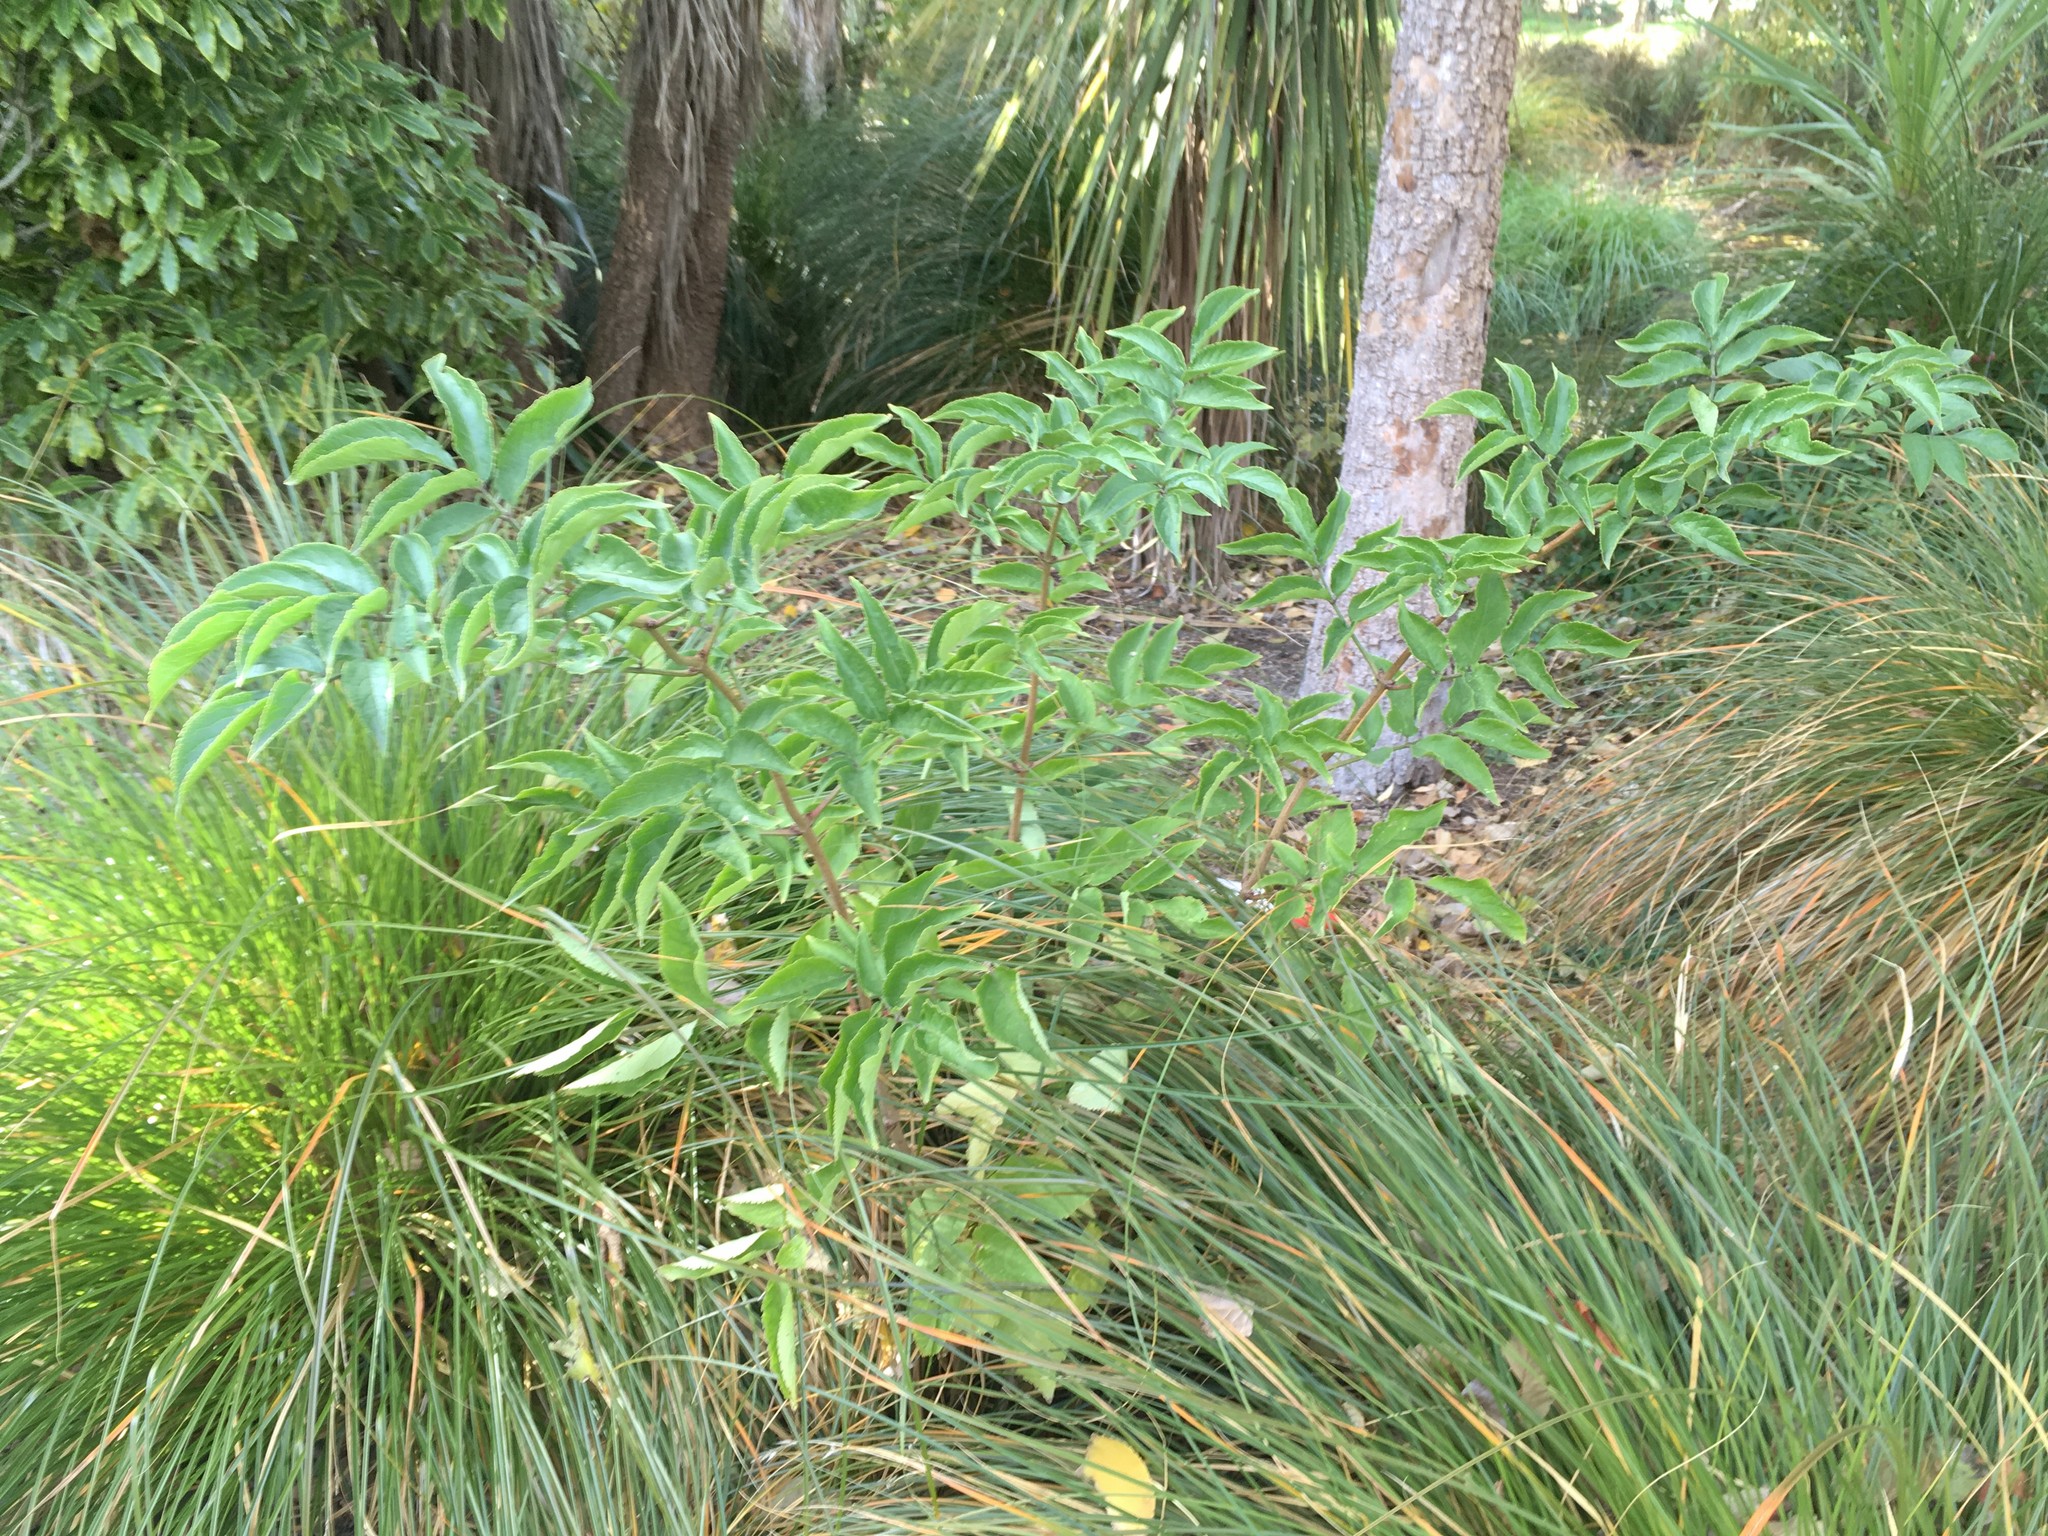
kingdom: Plantae
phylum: Tracheophyta
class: Magnoliopsida
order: Dipsacales
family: Viburnaceae
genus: Sambucus
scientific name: Sambucus nigra
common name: Elder
